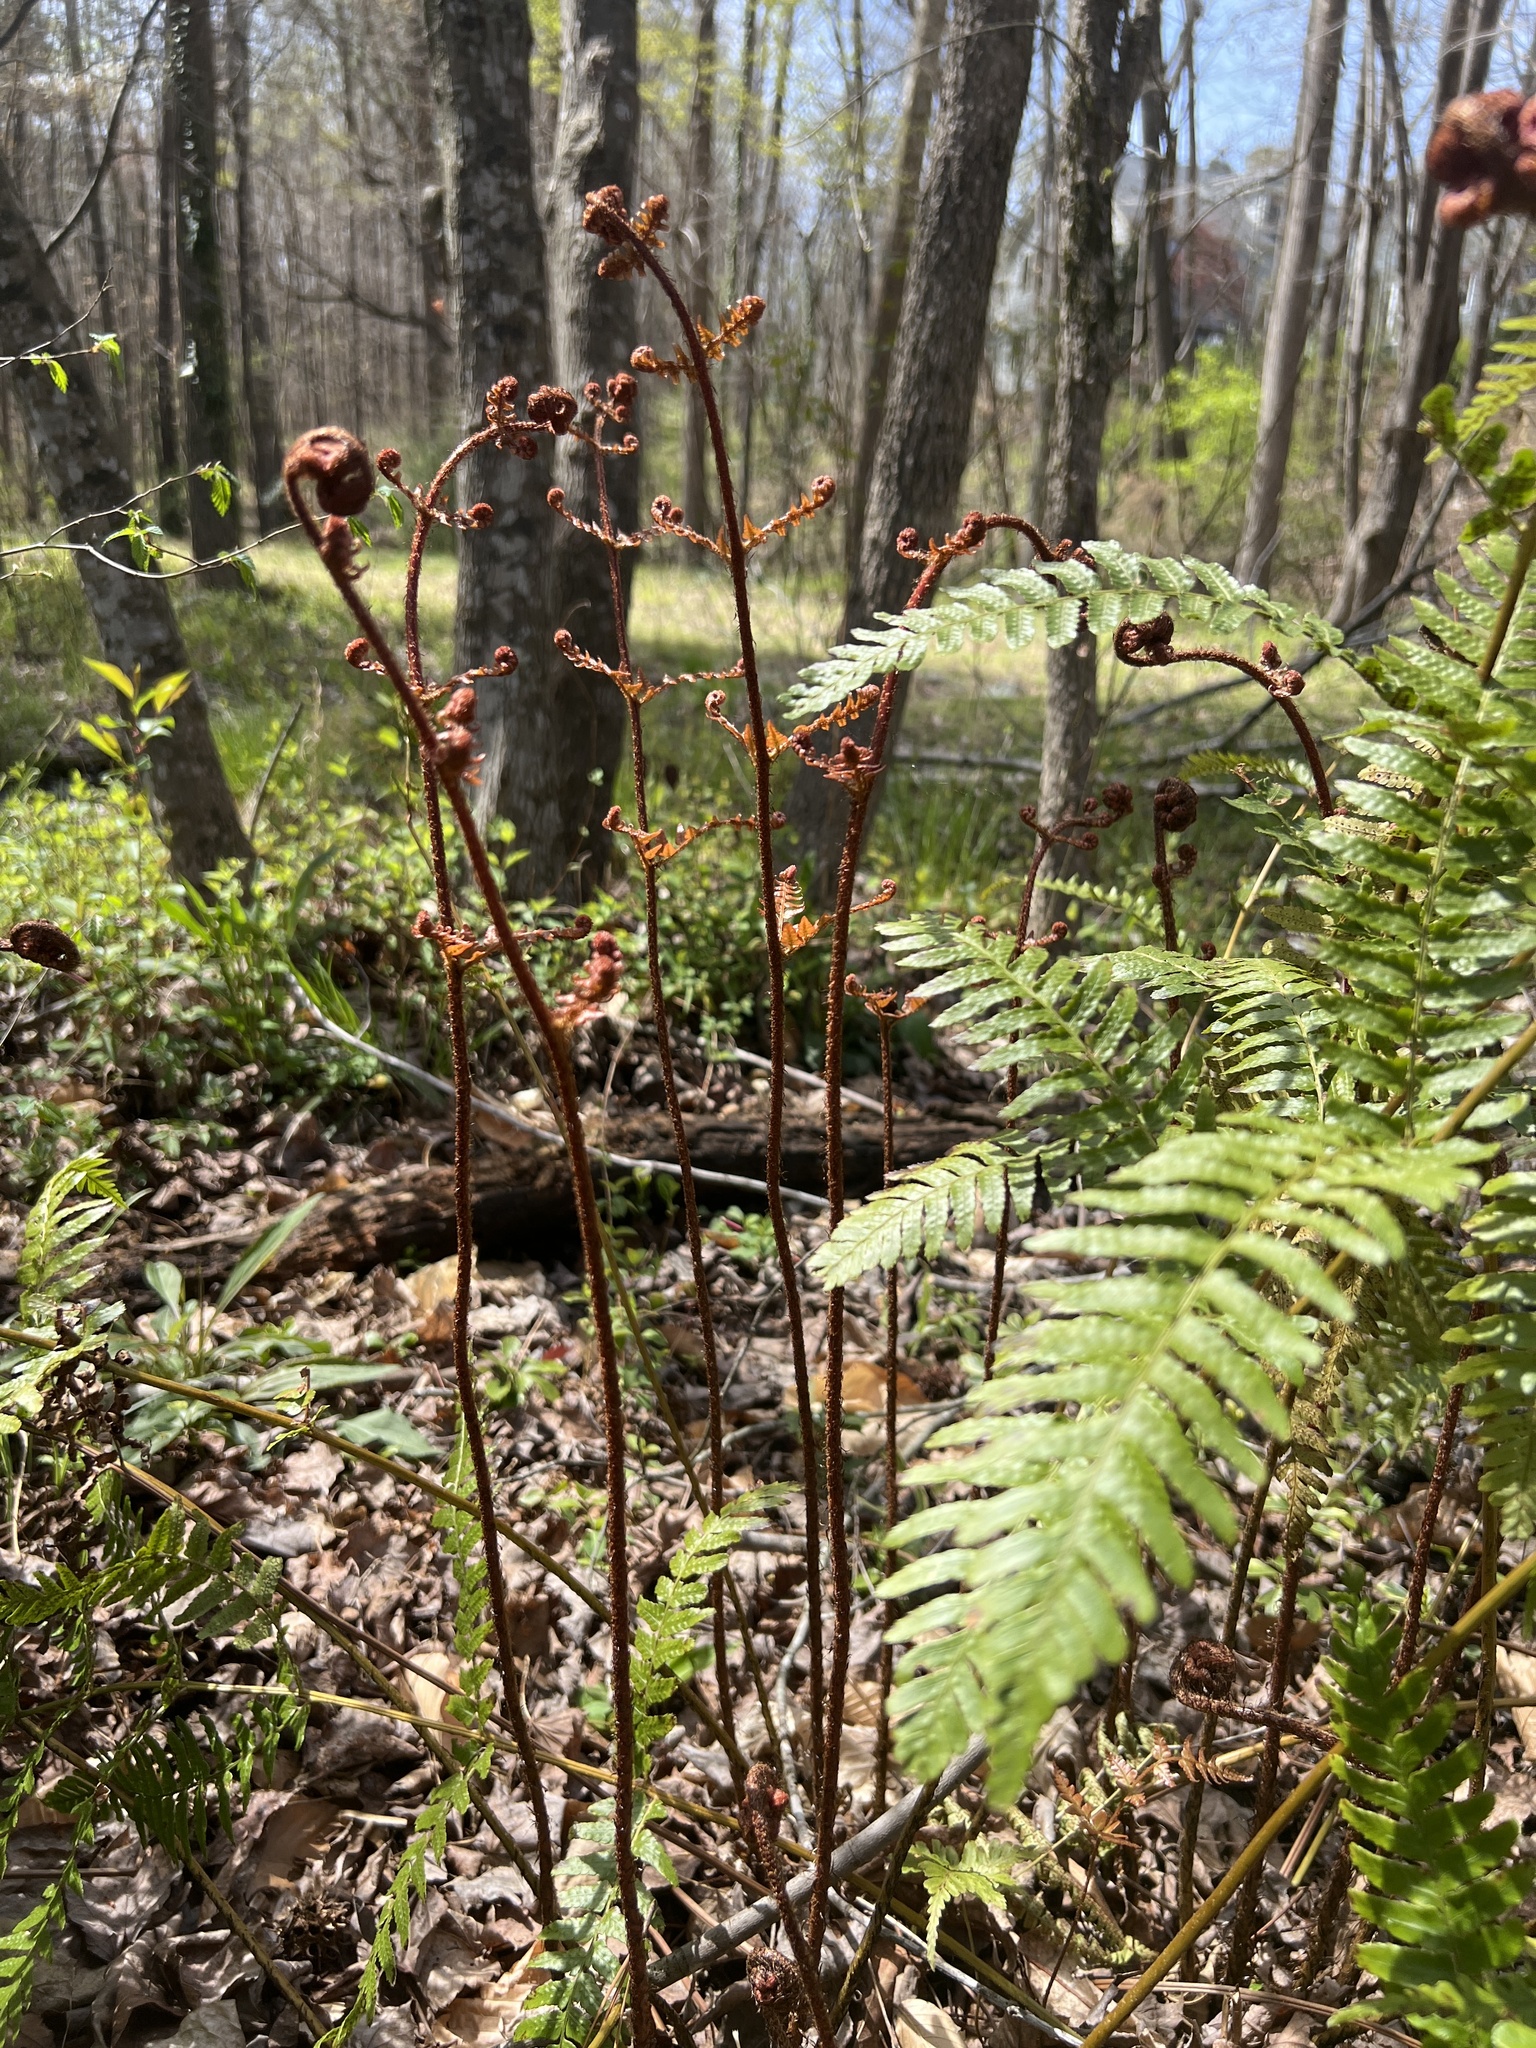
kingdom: Plantae
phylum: Tracheophyta
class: Polypodiopsida
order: Polypodiales
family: Dryopteridaceae
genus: Dryopteris
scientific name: Dryopteris erythrosora
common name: Autumn fern
